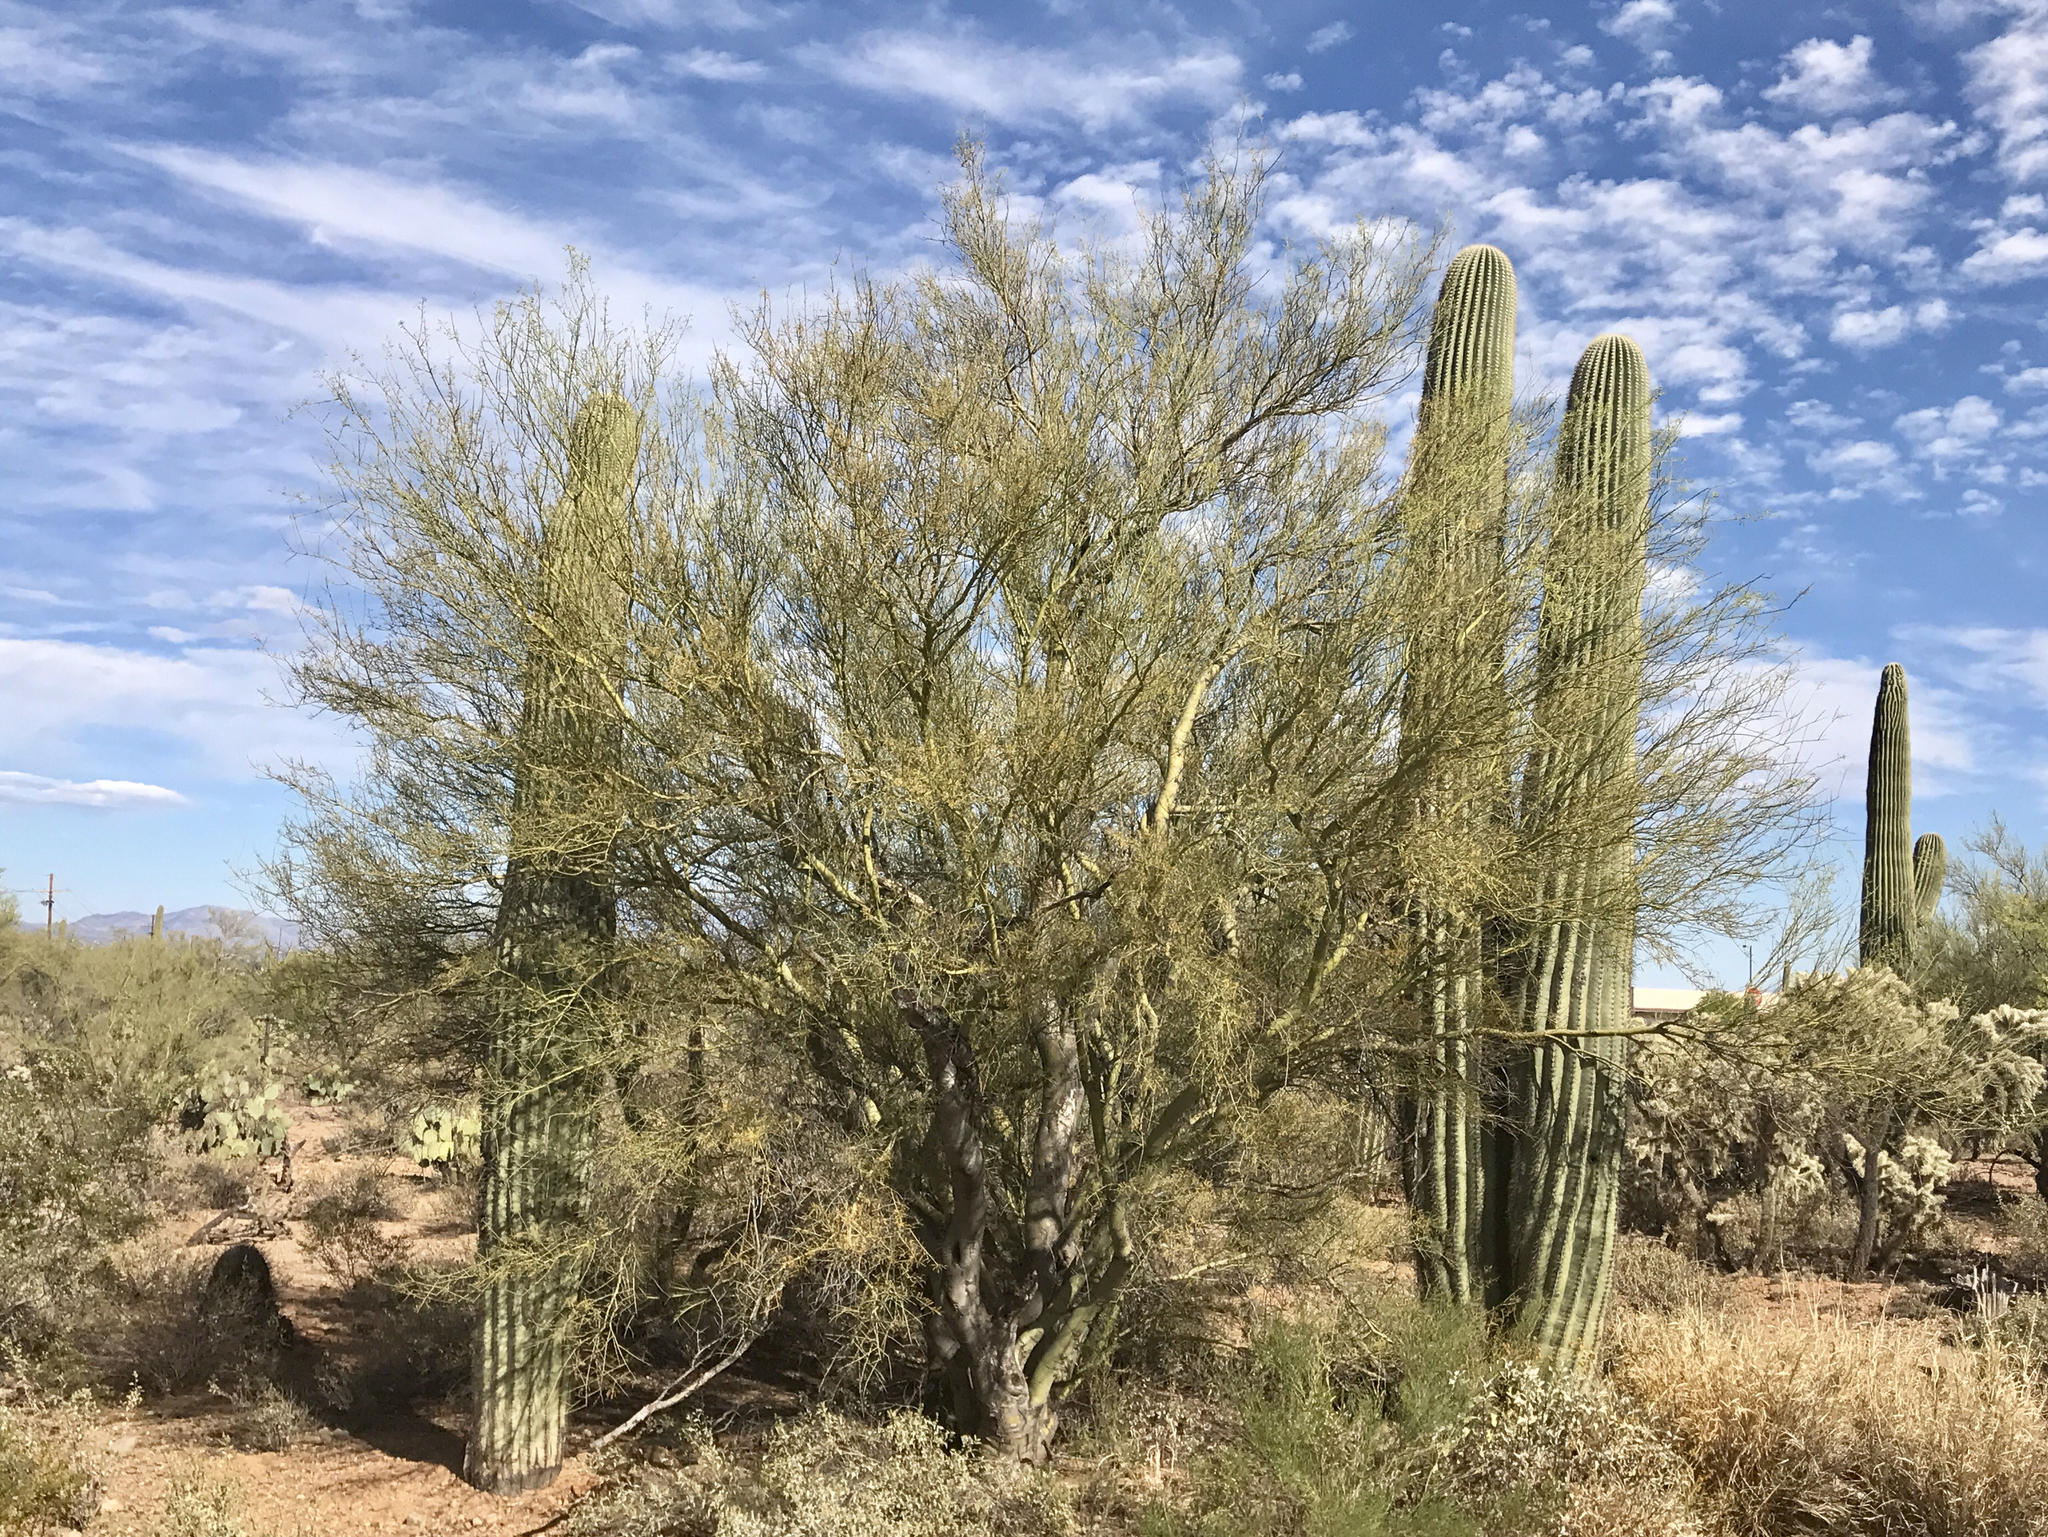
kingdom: Plantae
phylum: Tracheophyta
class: Magnoliopsida
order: Caryophyllales
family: Cactaceae
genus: Carnegiea
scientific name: Carnegiea gigantea
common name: Saguaro
